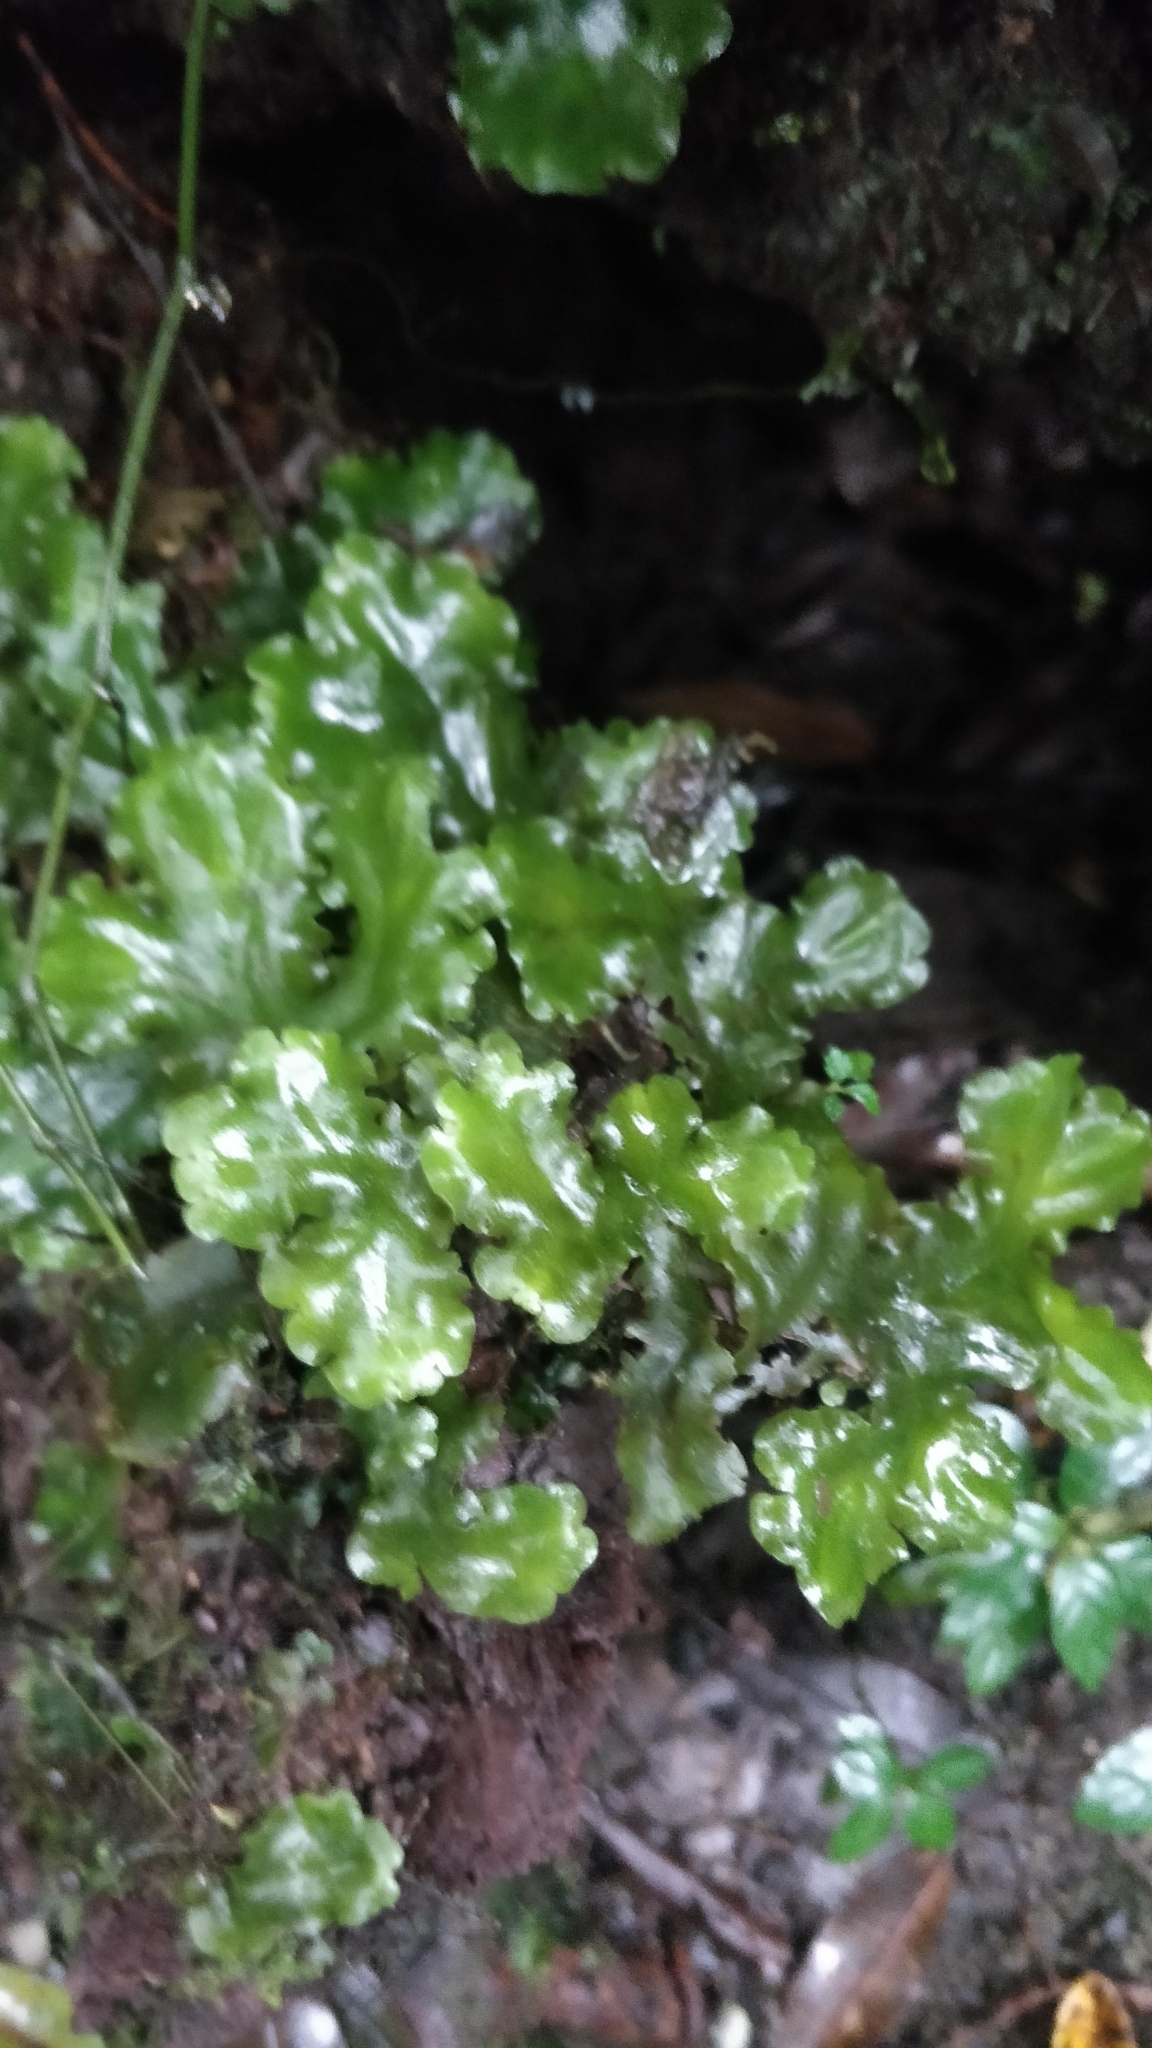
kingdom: Plantae
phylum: Marchantiophyta
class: Marchantiopsida
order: Marchantiales
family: Monocleaceae
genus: Monoclea
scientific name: Monoclea gottschei
